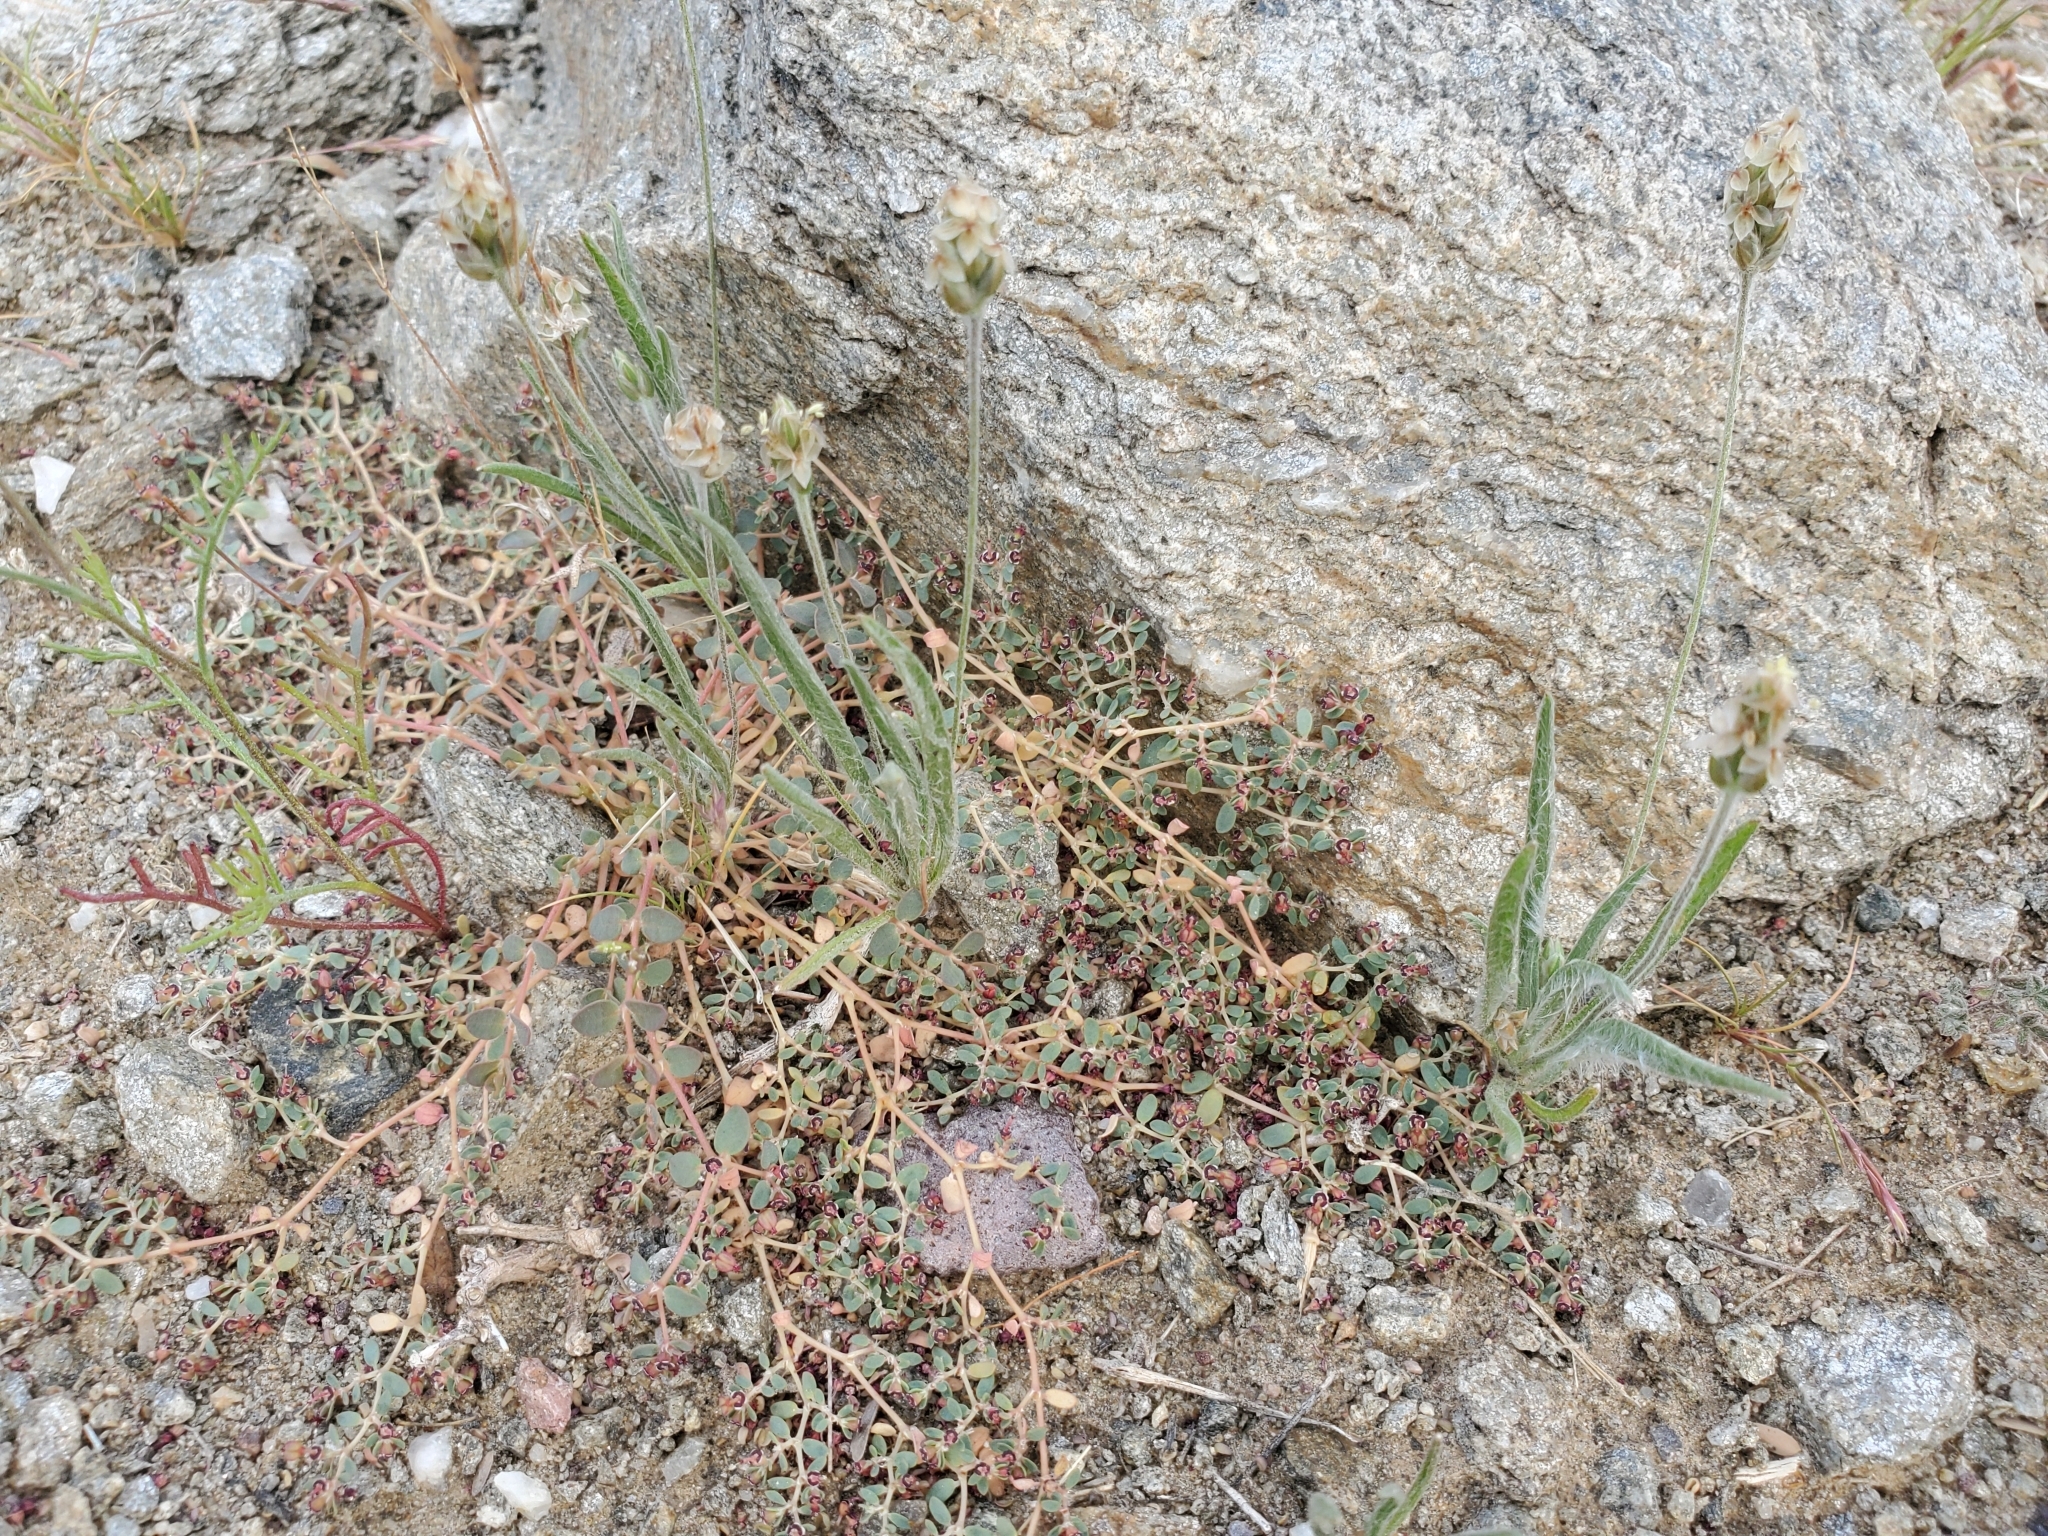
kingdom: Plantae
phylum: Tracheophyta
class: Magnoliopsida
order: Lamiales
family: Plantaginaceae
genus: Plantago
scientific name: Plantago ovata
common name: Blond plantain
